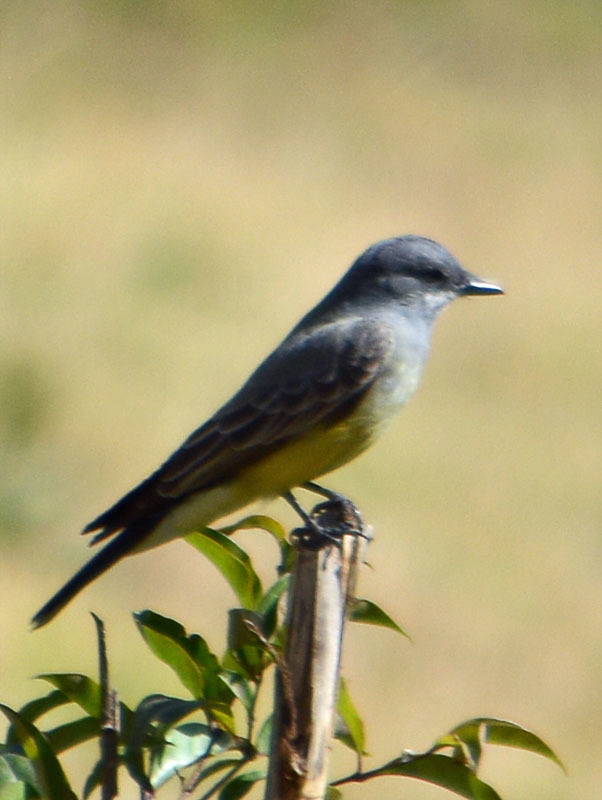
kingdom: Animalia
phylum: Chordata
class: Aves
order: Passeriformes
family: Tyrannidae
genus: Tyrannus
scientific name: Tyrannus vociferans
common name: Cassin's kingbird
